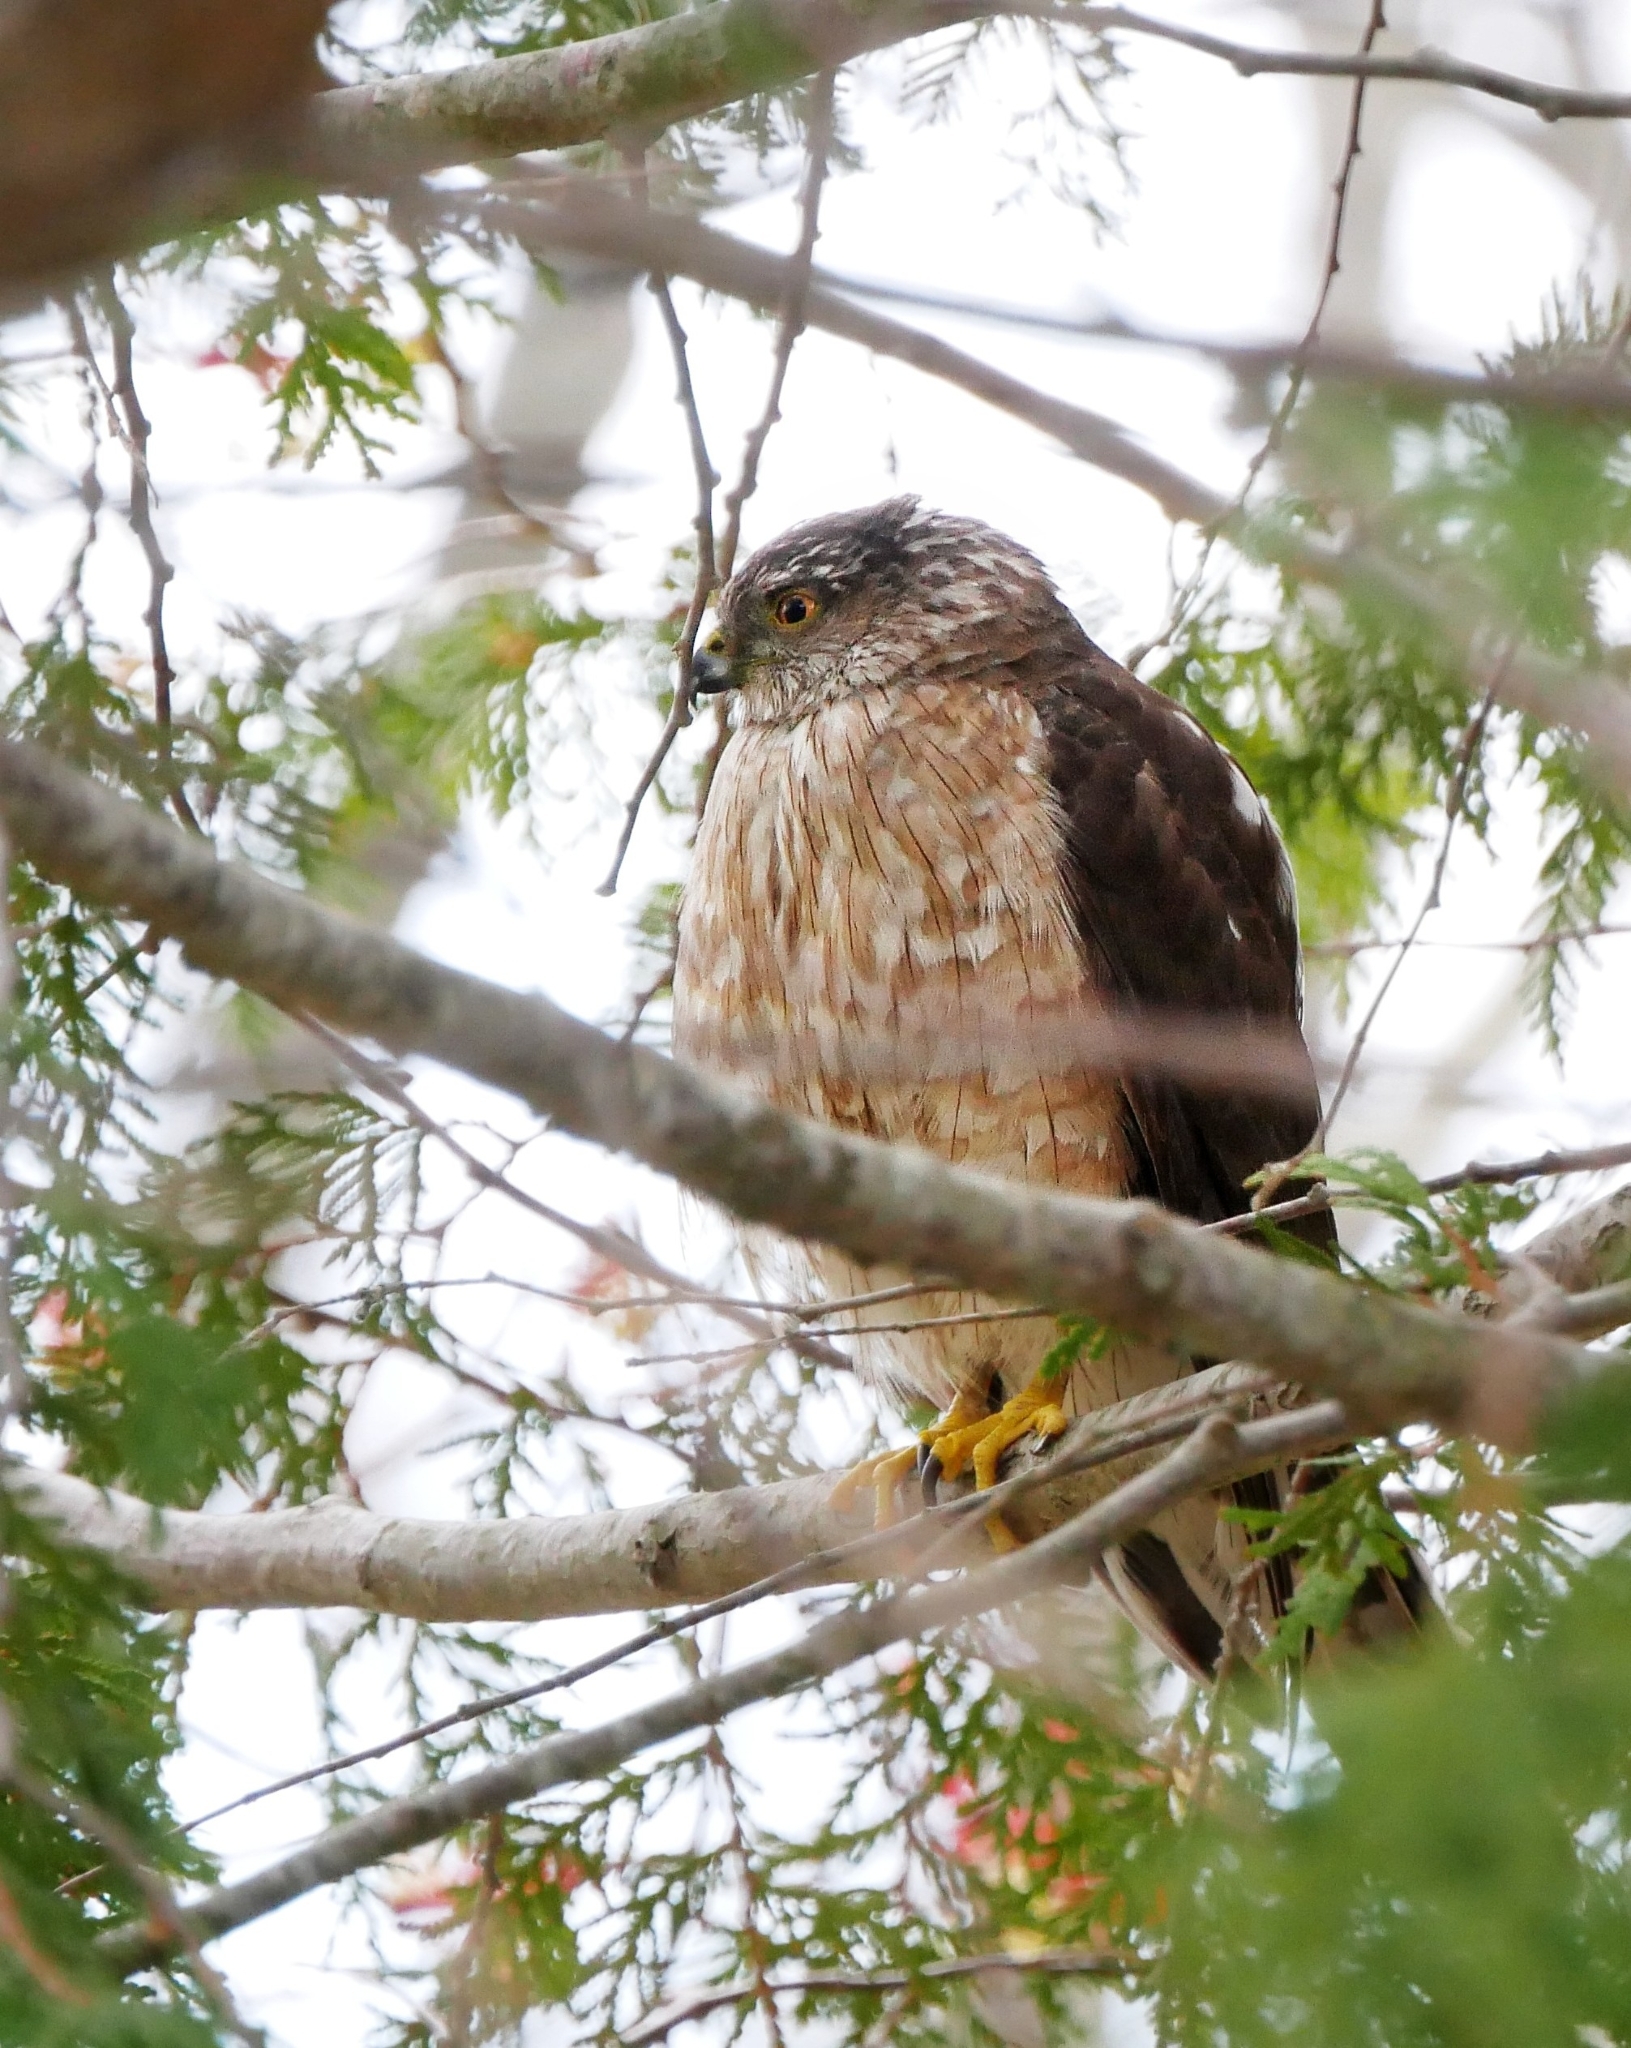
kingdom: Animalia
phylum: Chordata
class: Aves
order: Accipitriformes
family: Accipitridae
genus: Accipiter
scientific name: Accipiter striatus
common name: Sharp-shinned hawk
